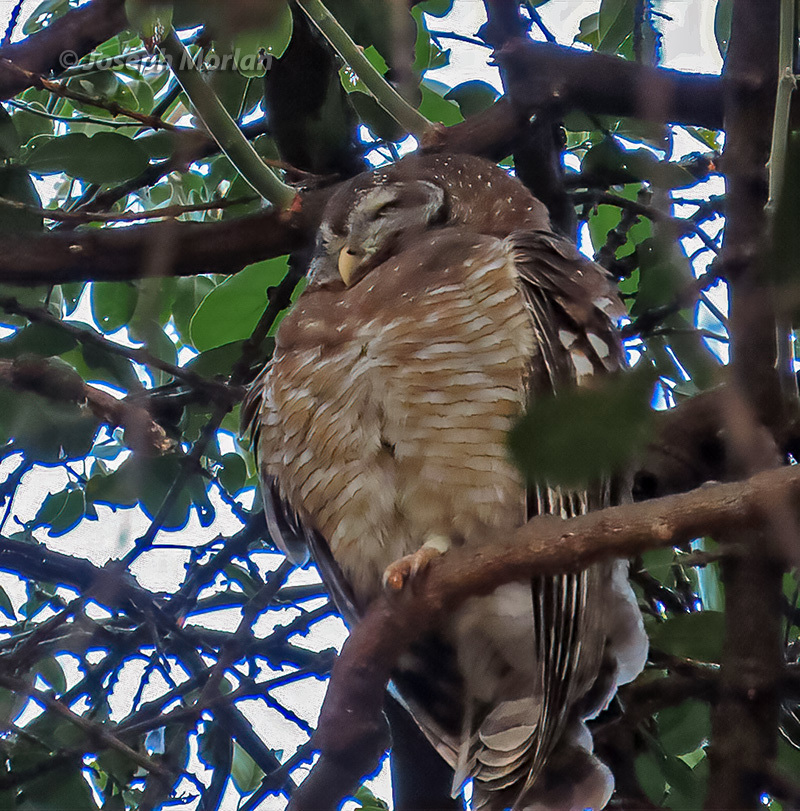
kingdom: Animalia
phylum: Chordata
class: Aves
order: Strigiformes
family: Strigidae
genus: Strix
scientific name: Strix woodfordii
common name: African wood owl
